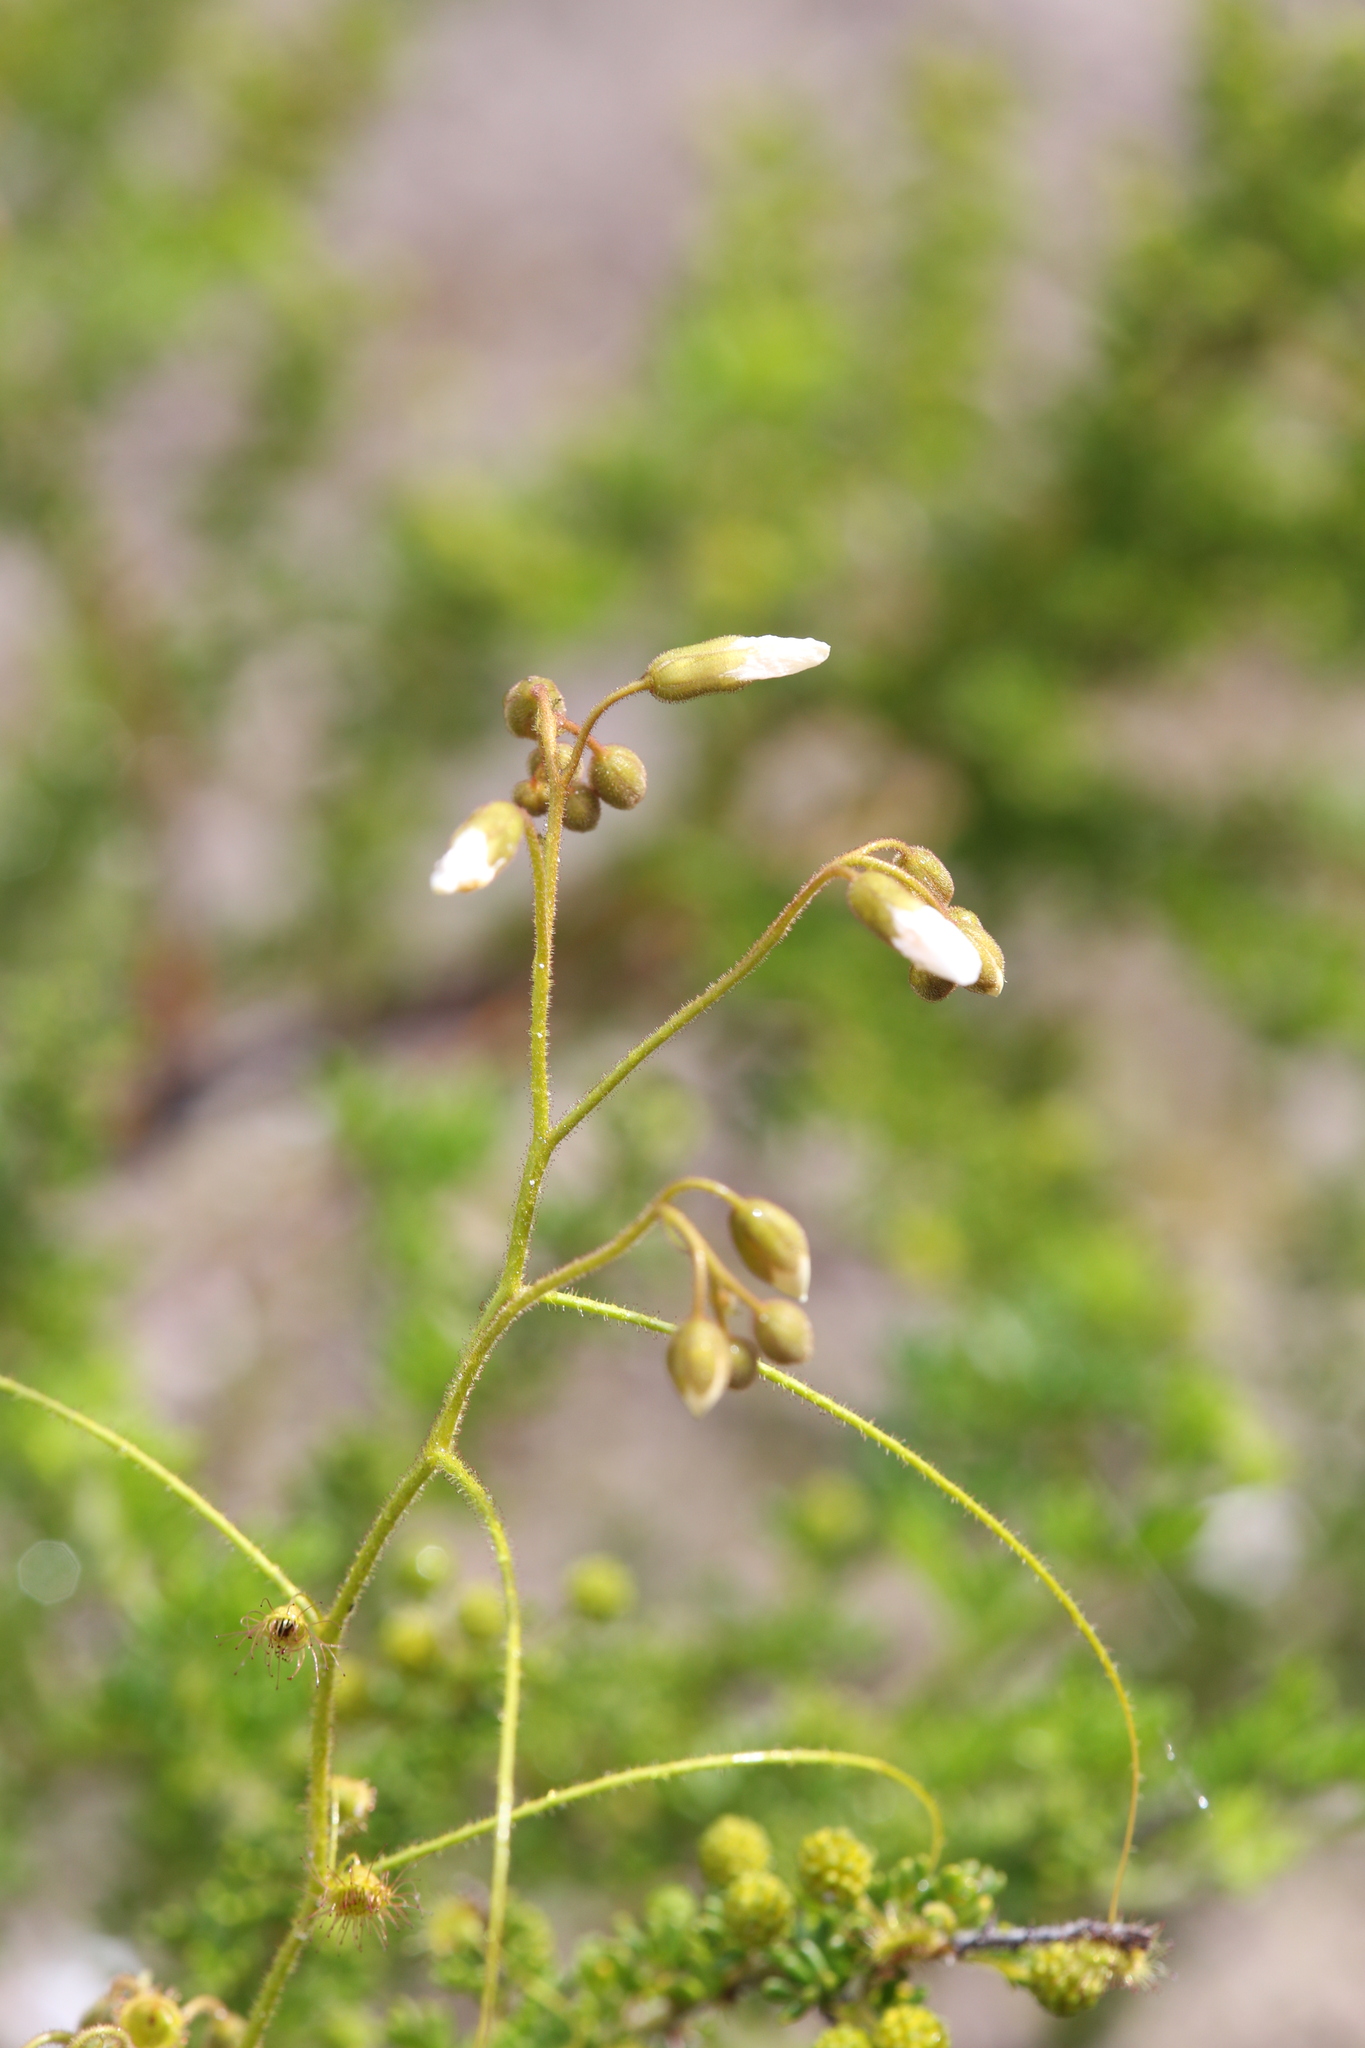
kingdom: Plantae
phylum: Tracheophyta
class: Magnoliopsida
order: Caryophyllales
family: Droseraceae
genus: Drosera
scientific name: Drosera macrantha
